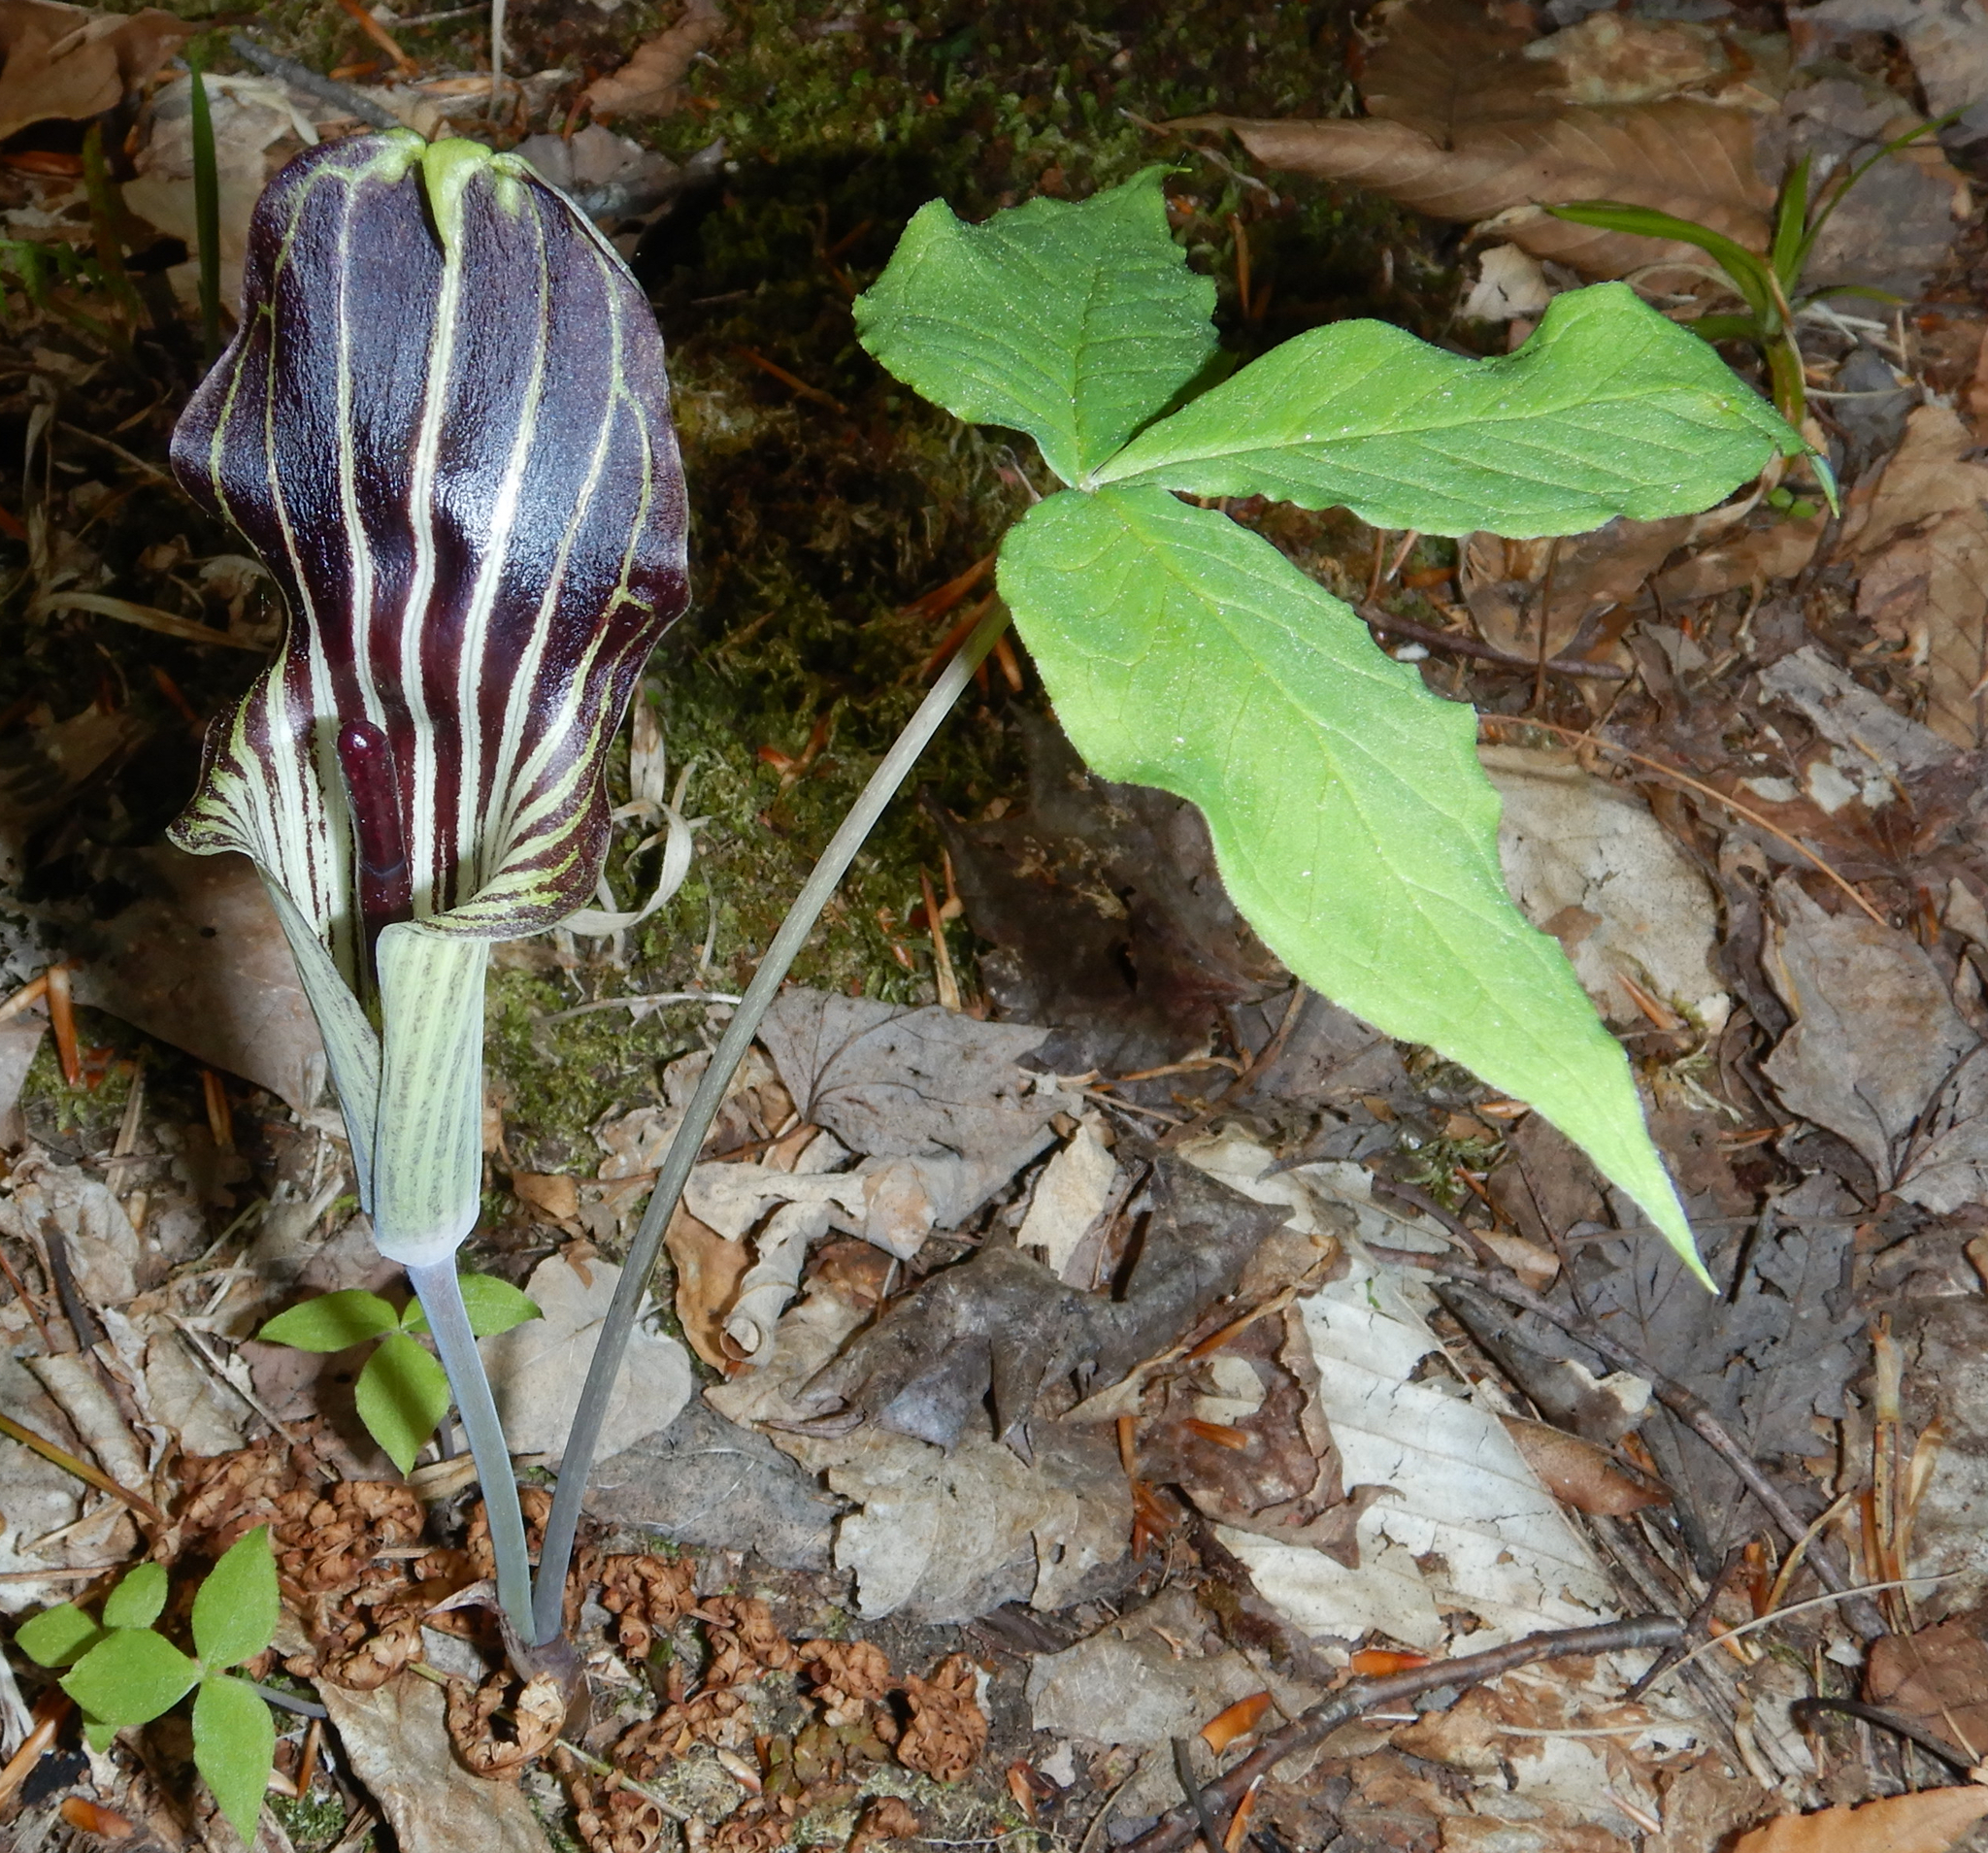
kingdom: Plantae
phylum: Tracheophyta
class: Liliopsida
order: Alismatales
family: Araceae
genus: Arisaema
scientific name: Arisaema triphyllum
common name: Jack-in-the-pulpit
